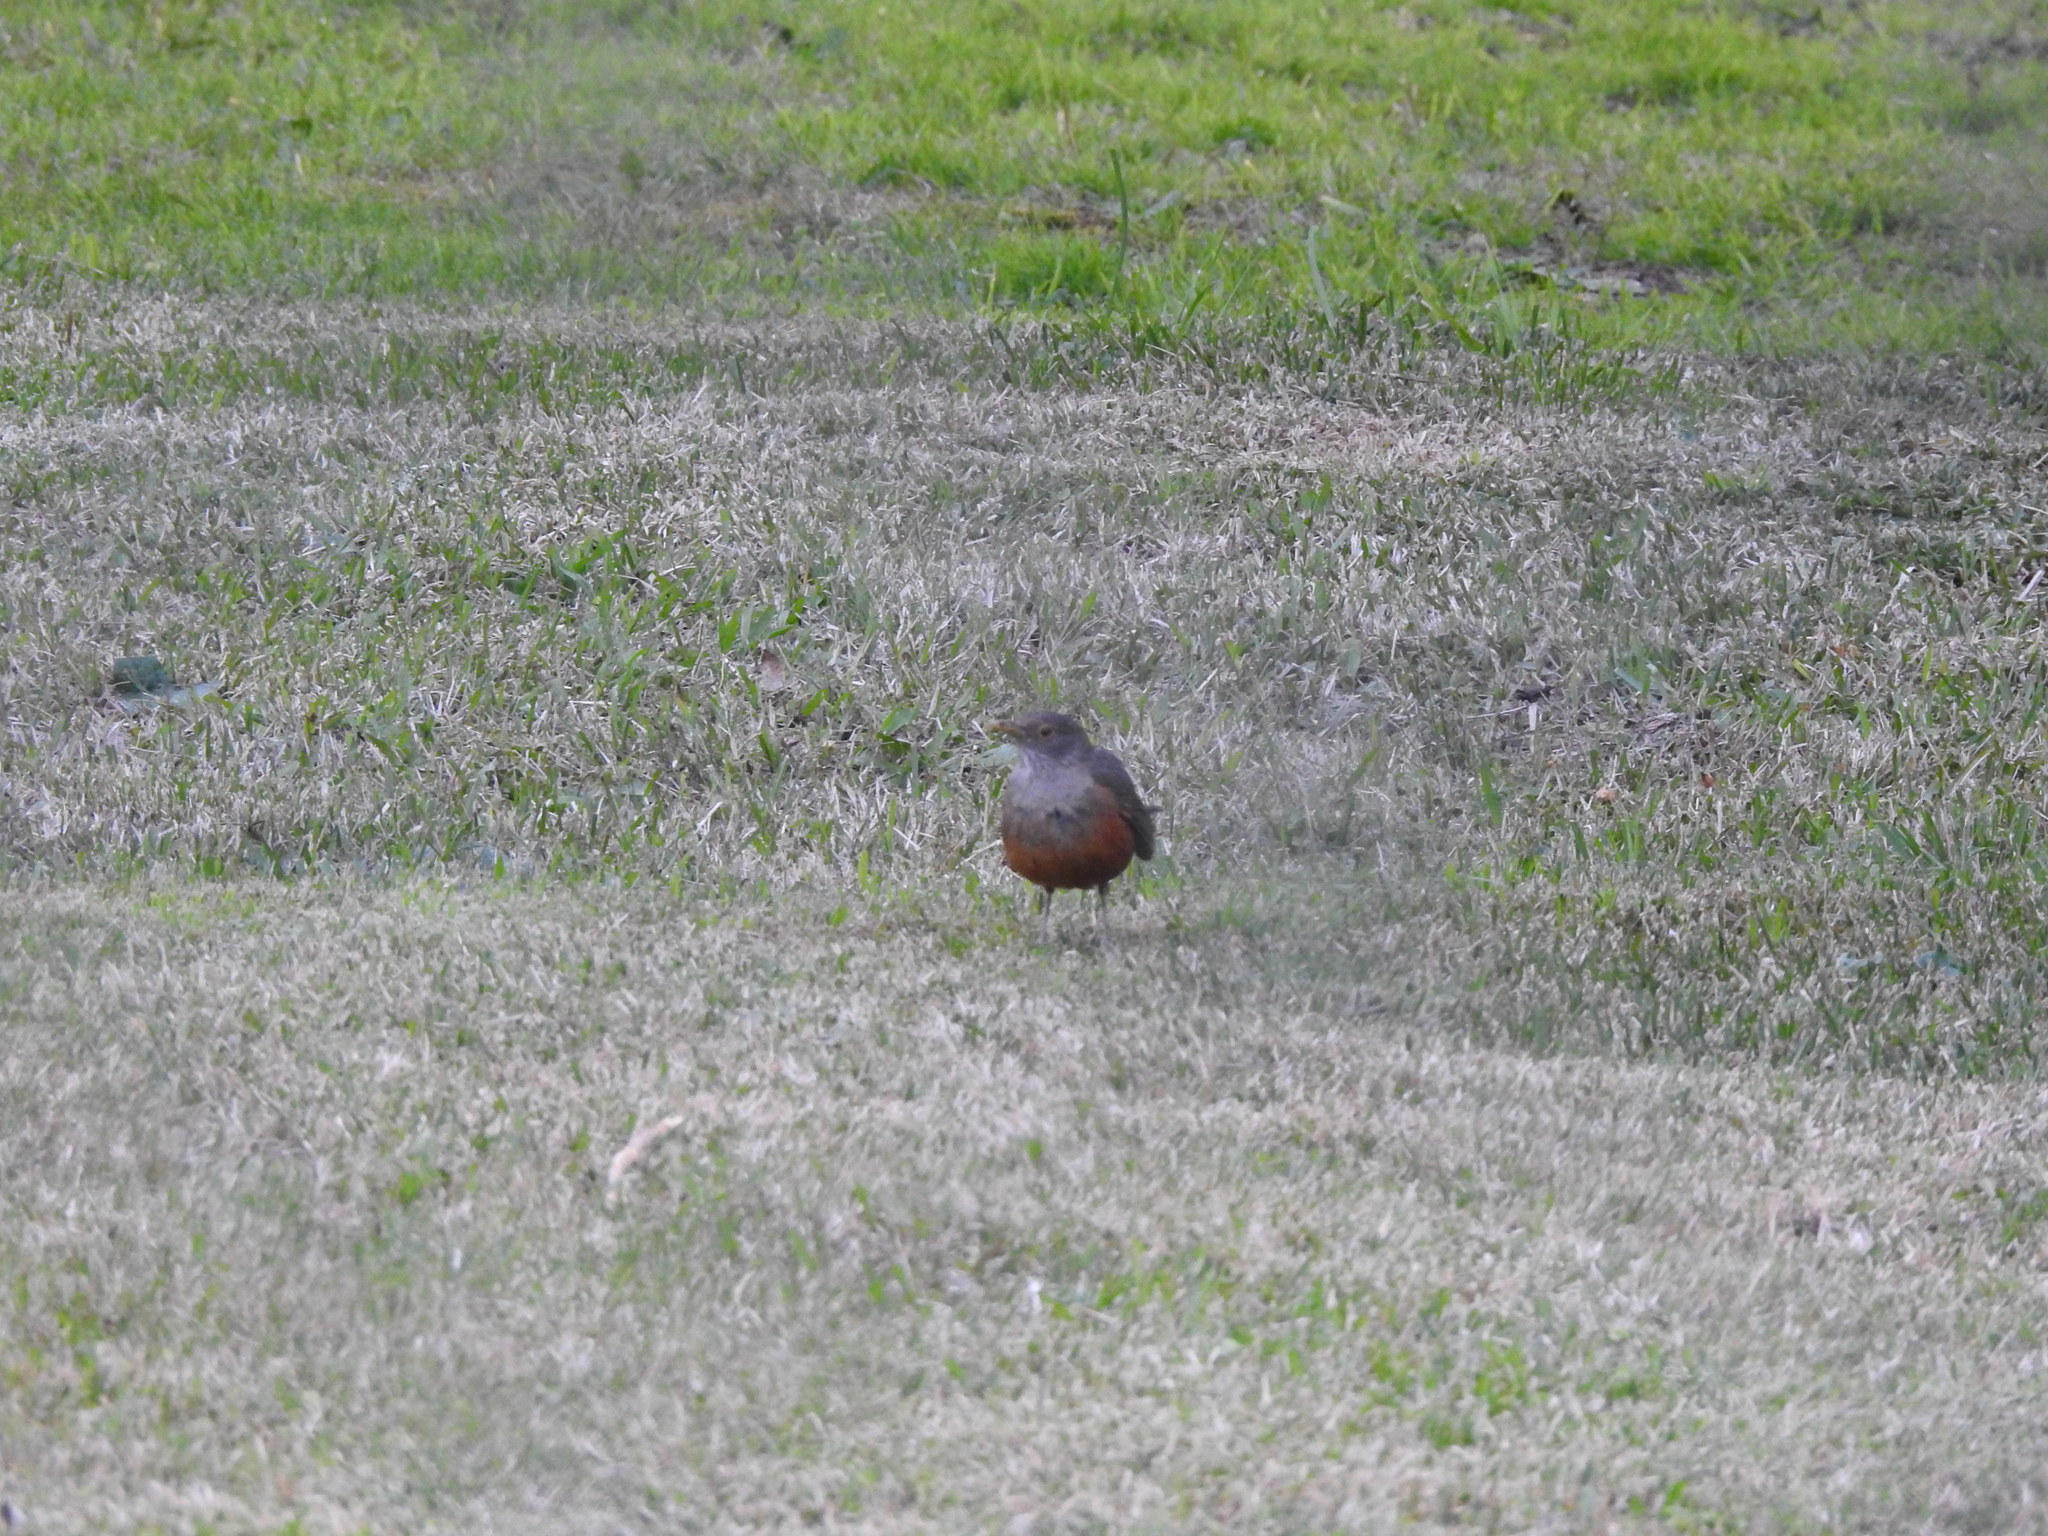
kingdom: Animalia
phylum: Chordata
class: Aves
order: Passeriformes
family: Turdidae
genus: Turdus
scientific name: Turdus rufiventris
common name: Rufous-bellied thrush
